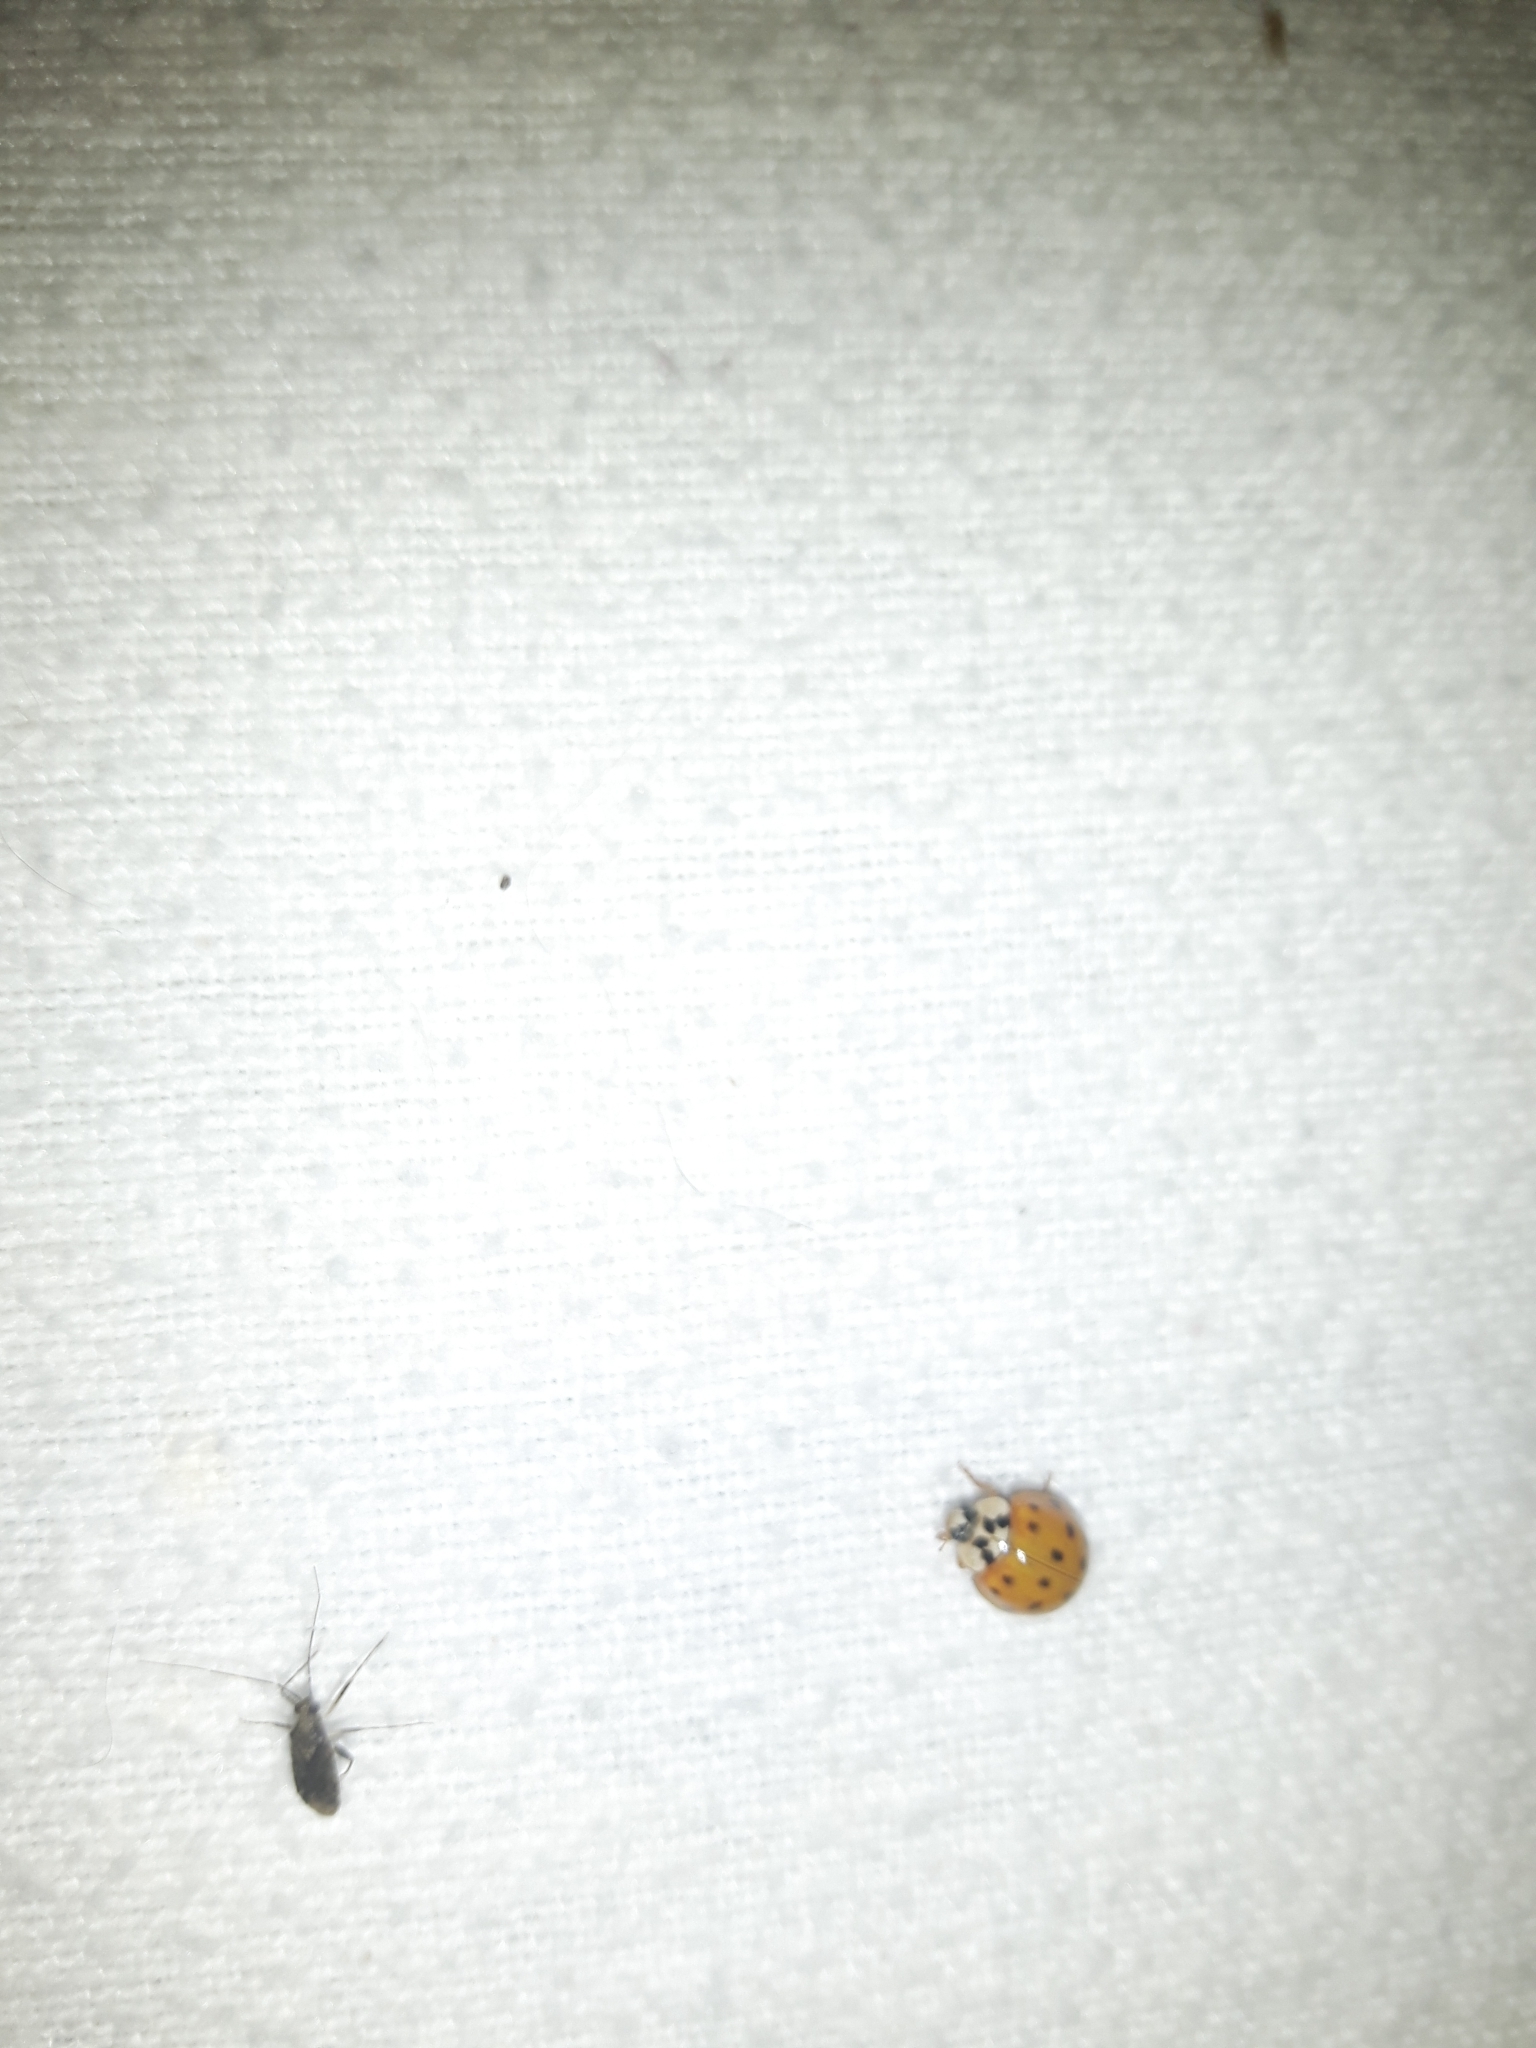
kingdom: Animalia
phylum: Arthropoda
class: Insecta
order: Coleoptera
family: Coccinellidae
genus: Harmonia
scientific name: Harmonia axyridis
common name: Harlequin ladybird
